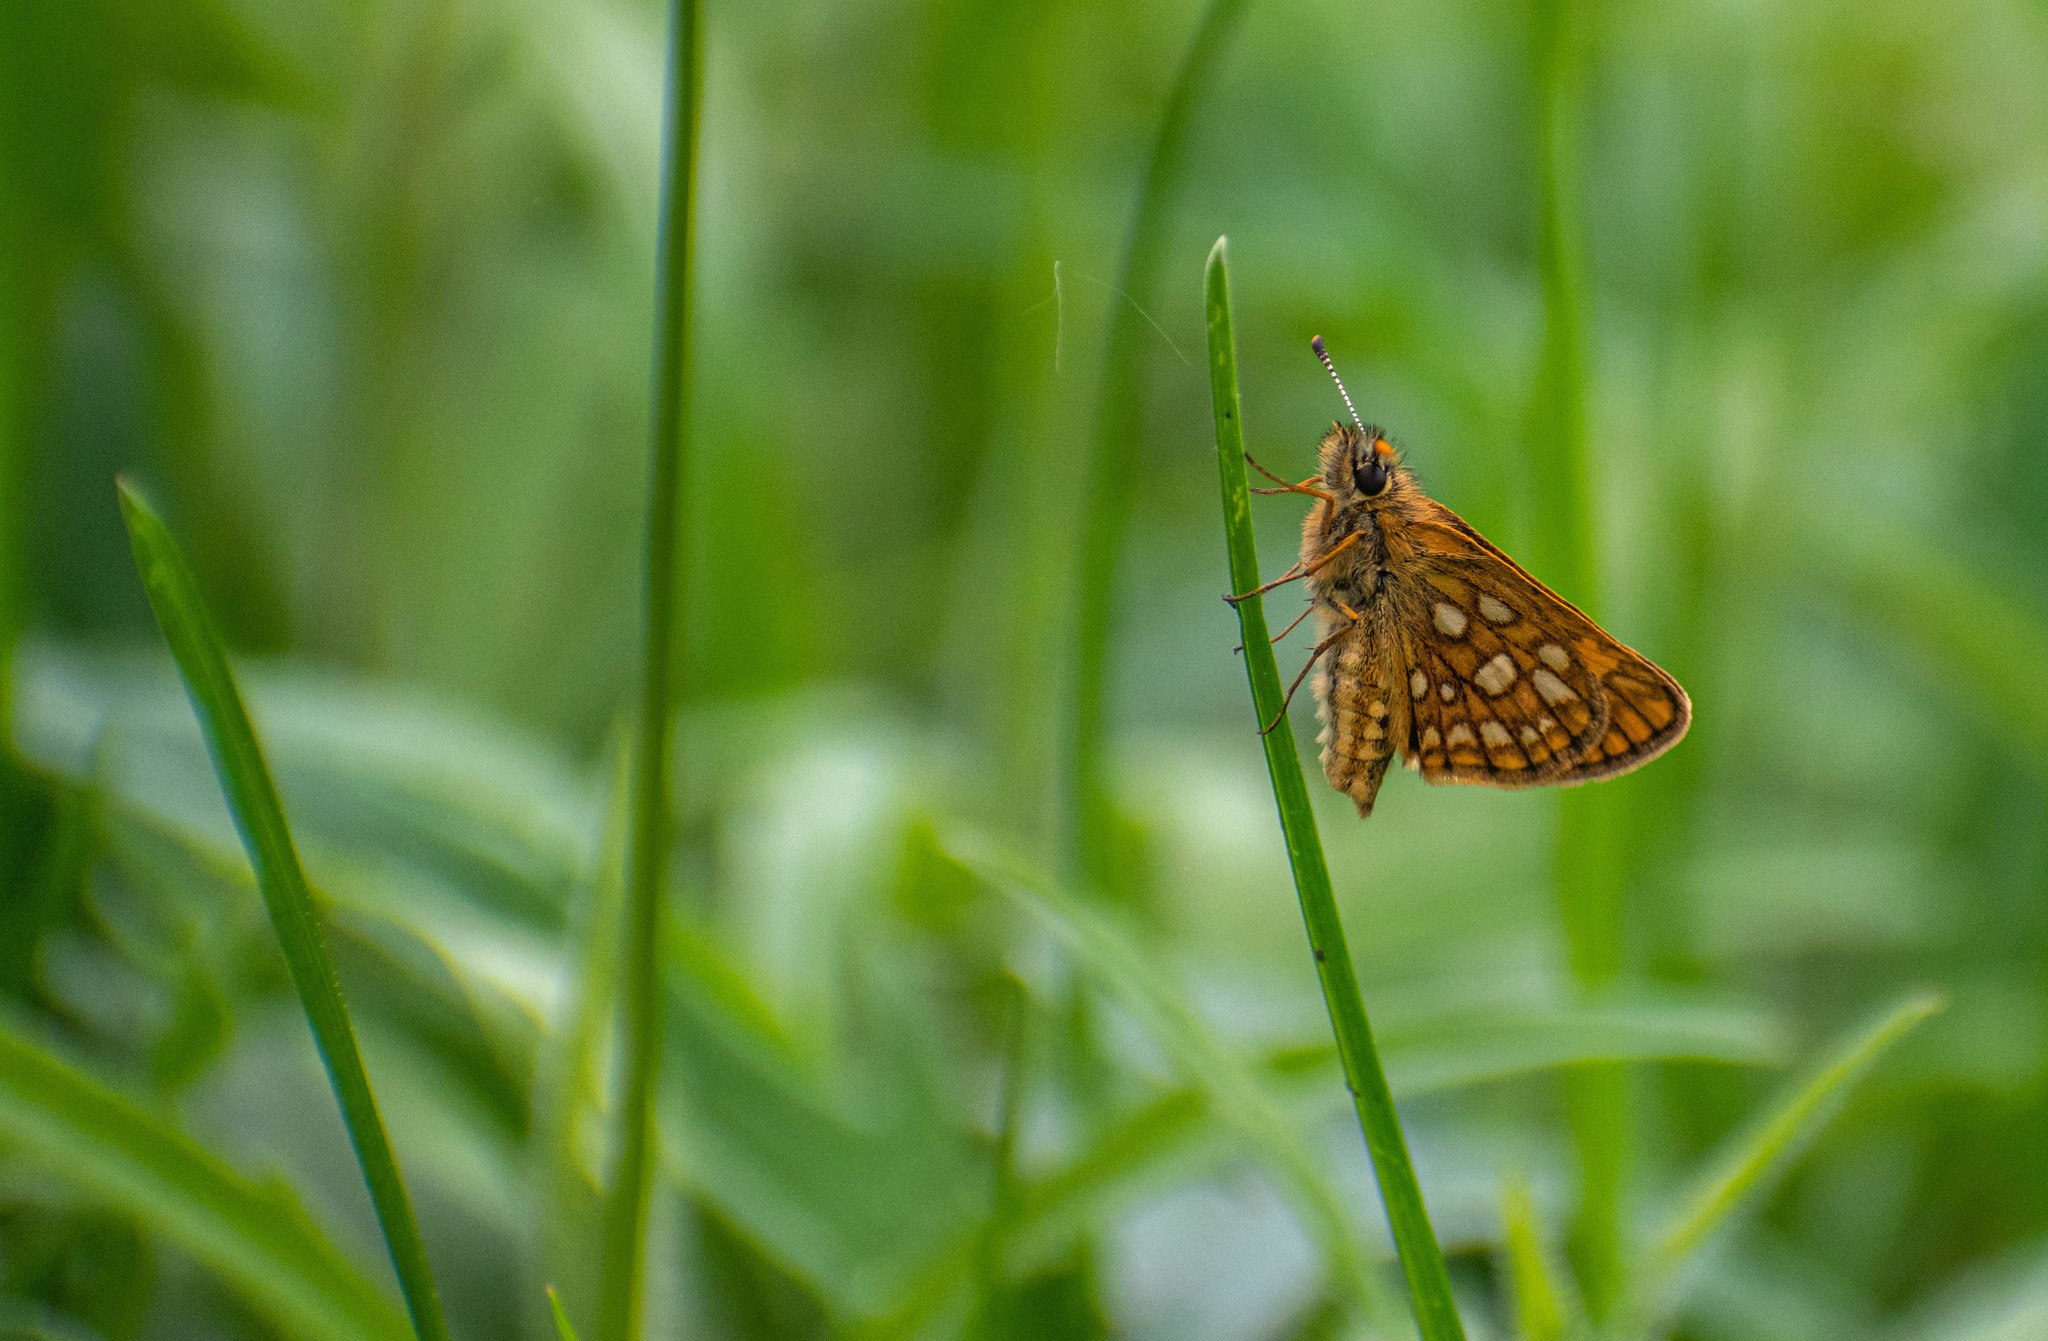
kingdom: Animalia
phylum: Arthropoda
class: Insecta
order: Lepidoptera
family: Hesperiidae
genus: Carterocephalus
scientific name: Carterocephalus palaemon
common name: Chequered skipper
